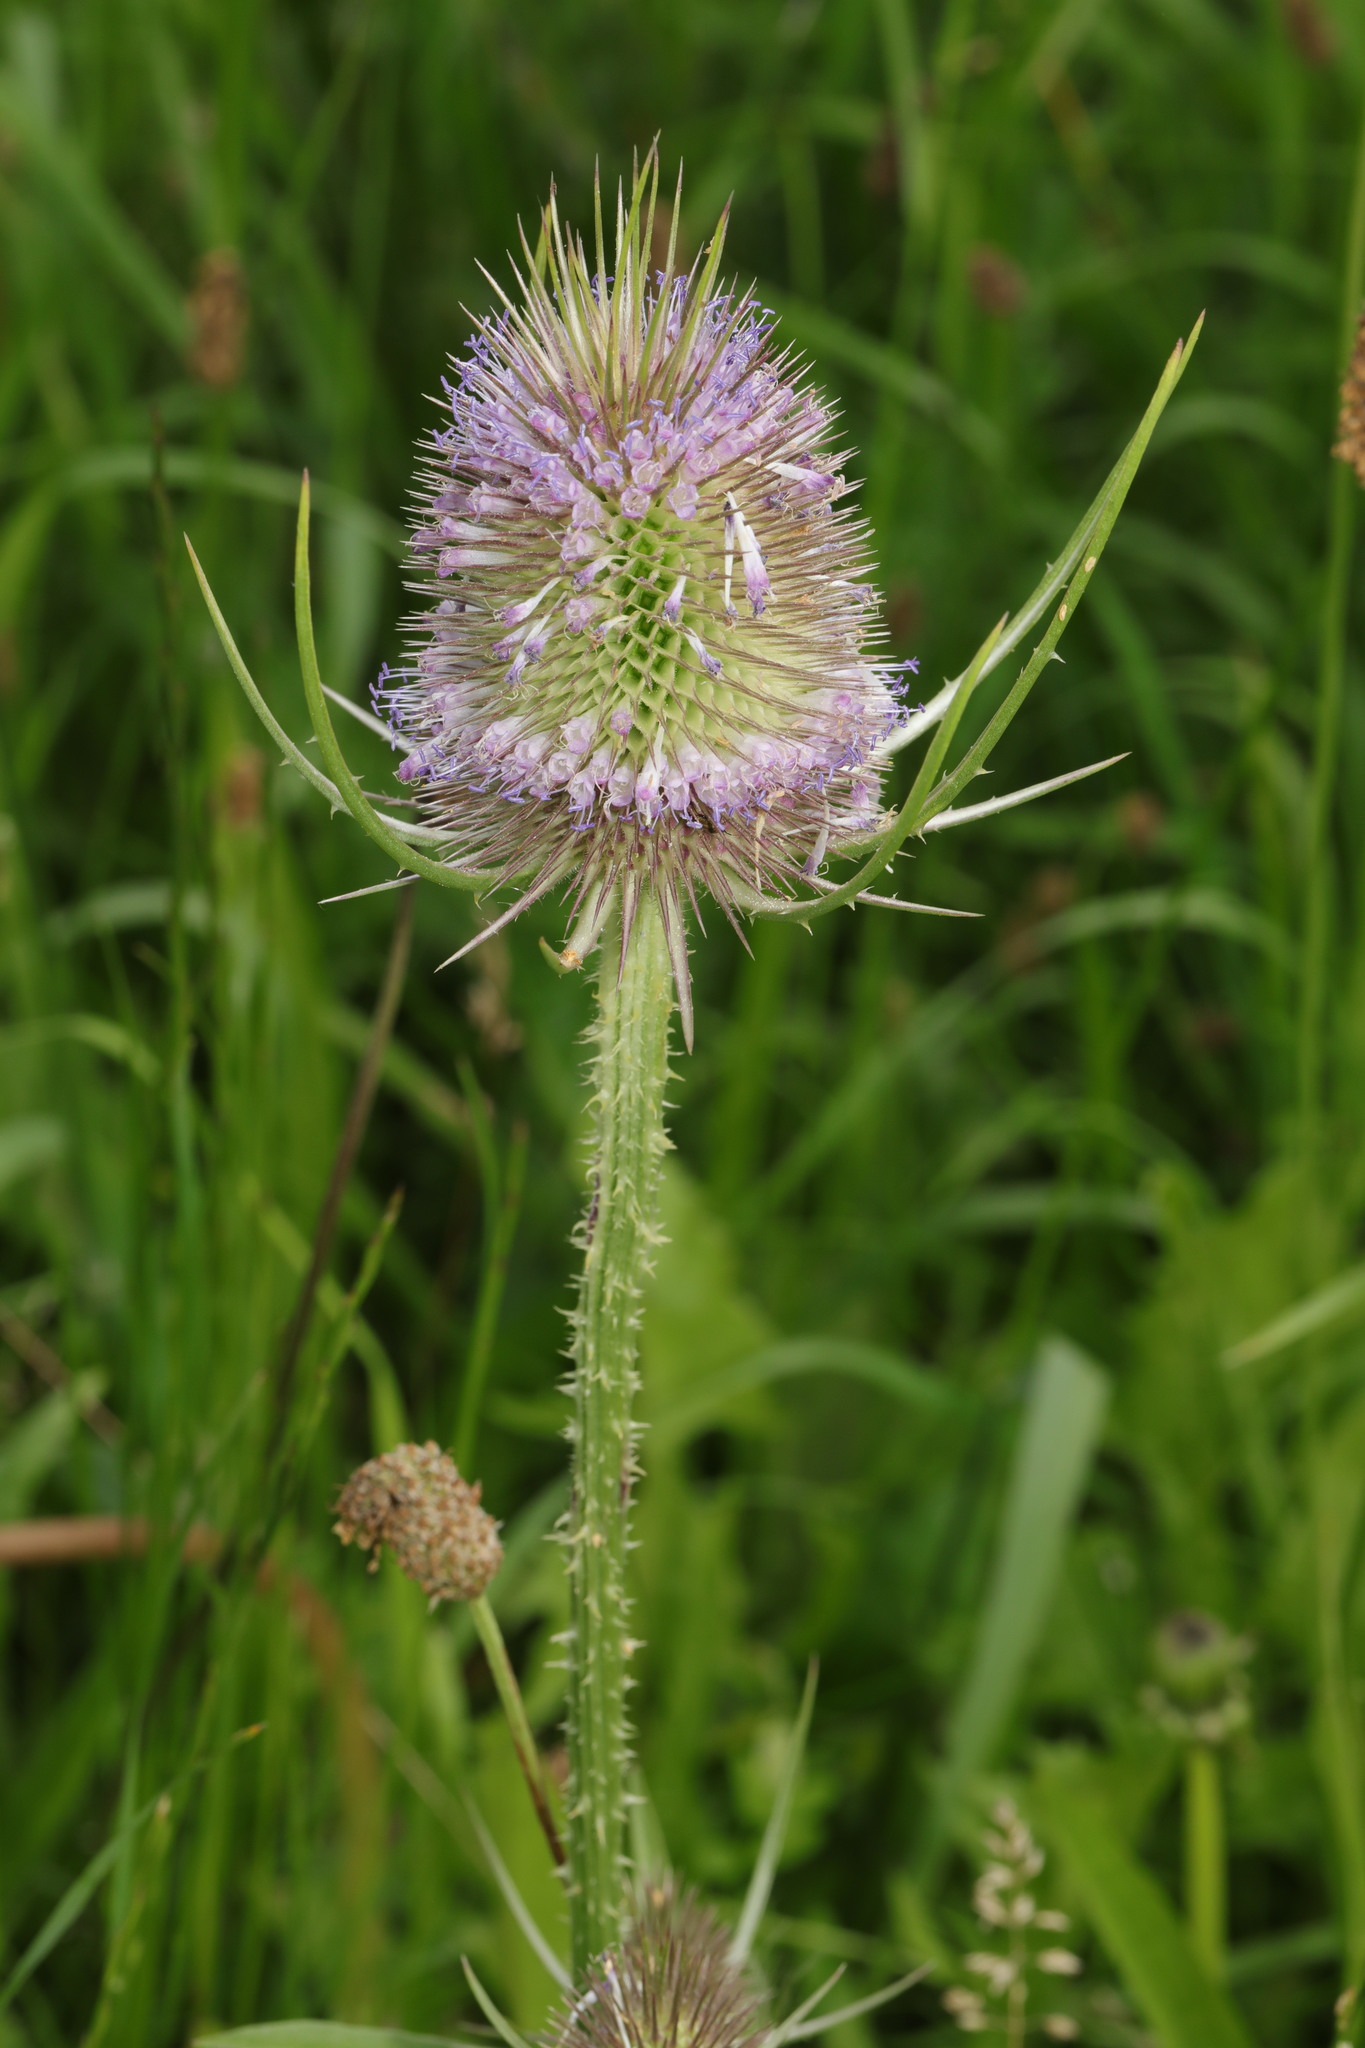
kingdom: Plantae
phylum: Tracheophyta
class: Magnoliopsida
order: Dipsacales
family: Caprifoliaceae
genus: Dipsacus
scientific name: Dipsacus fullonum
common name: Teasel
